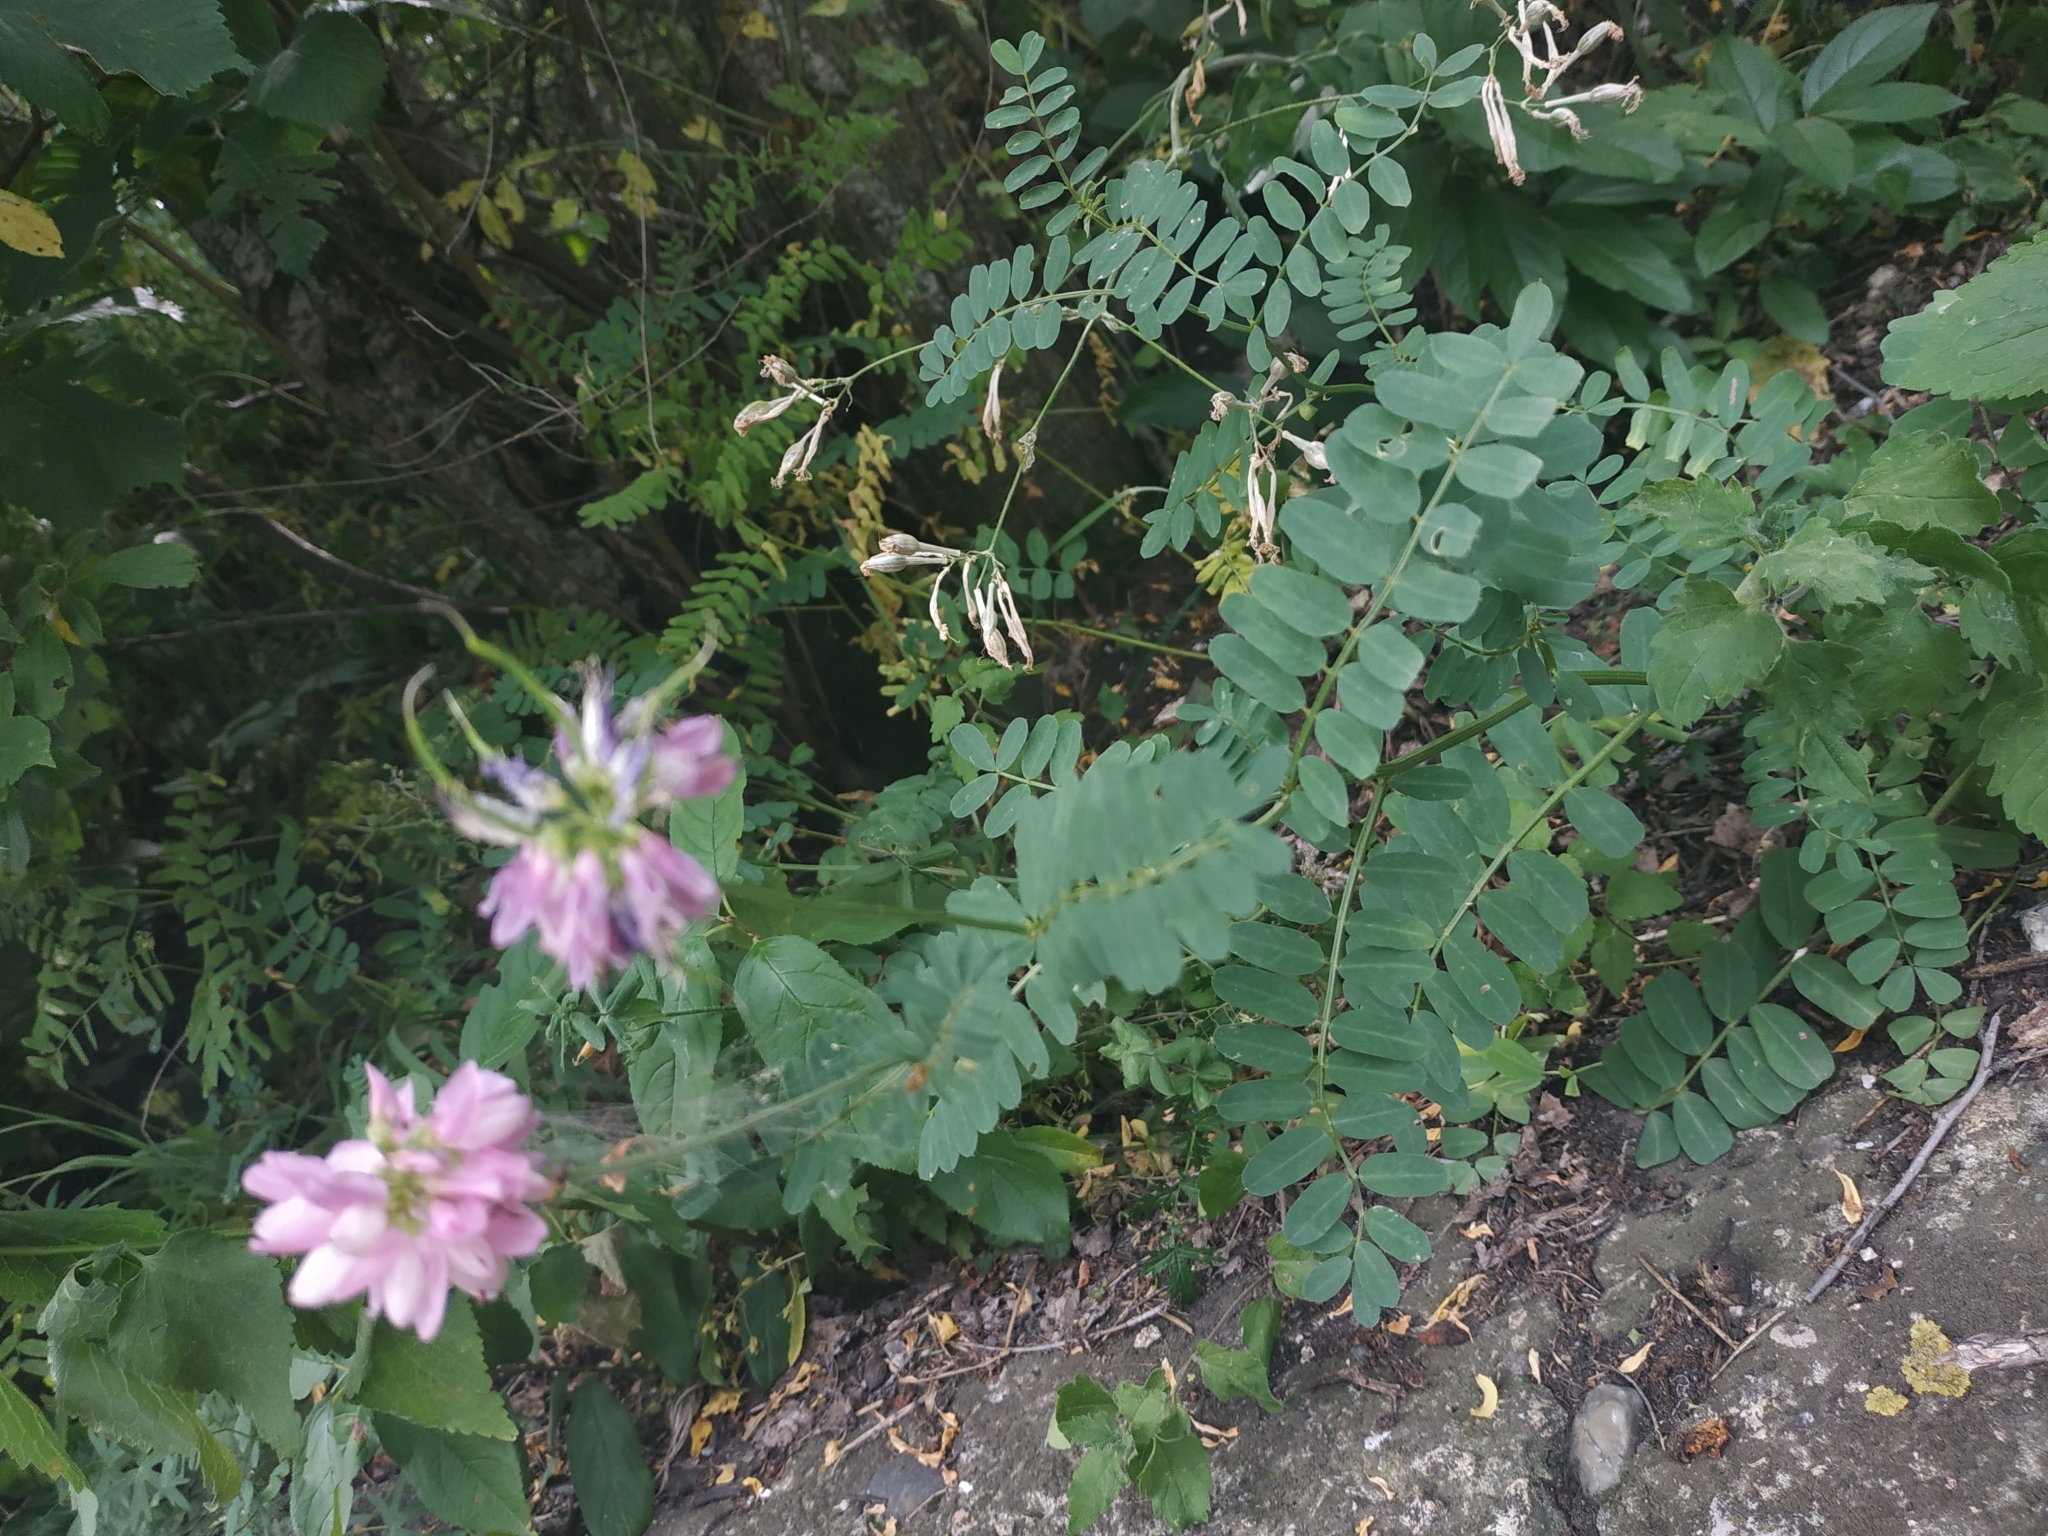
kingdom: Plantae
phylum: Tracheophyta
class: Magnoliopsida
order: Fabales
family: Fabaceae
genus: Coronilla
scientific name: Coronilla varia
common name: Crownvetch
